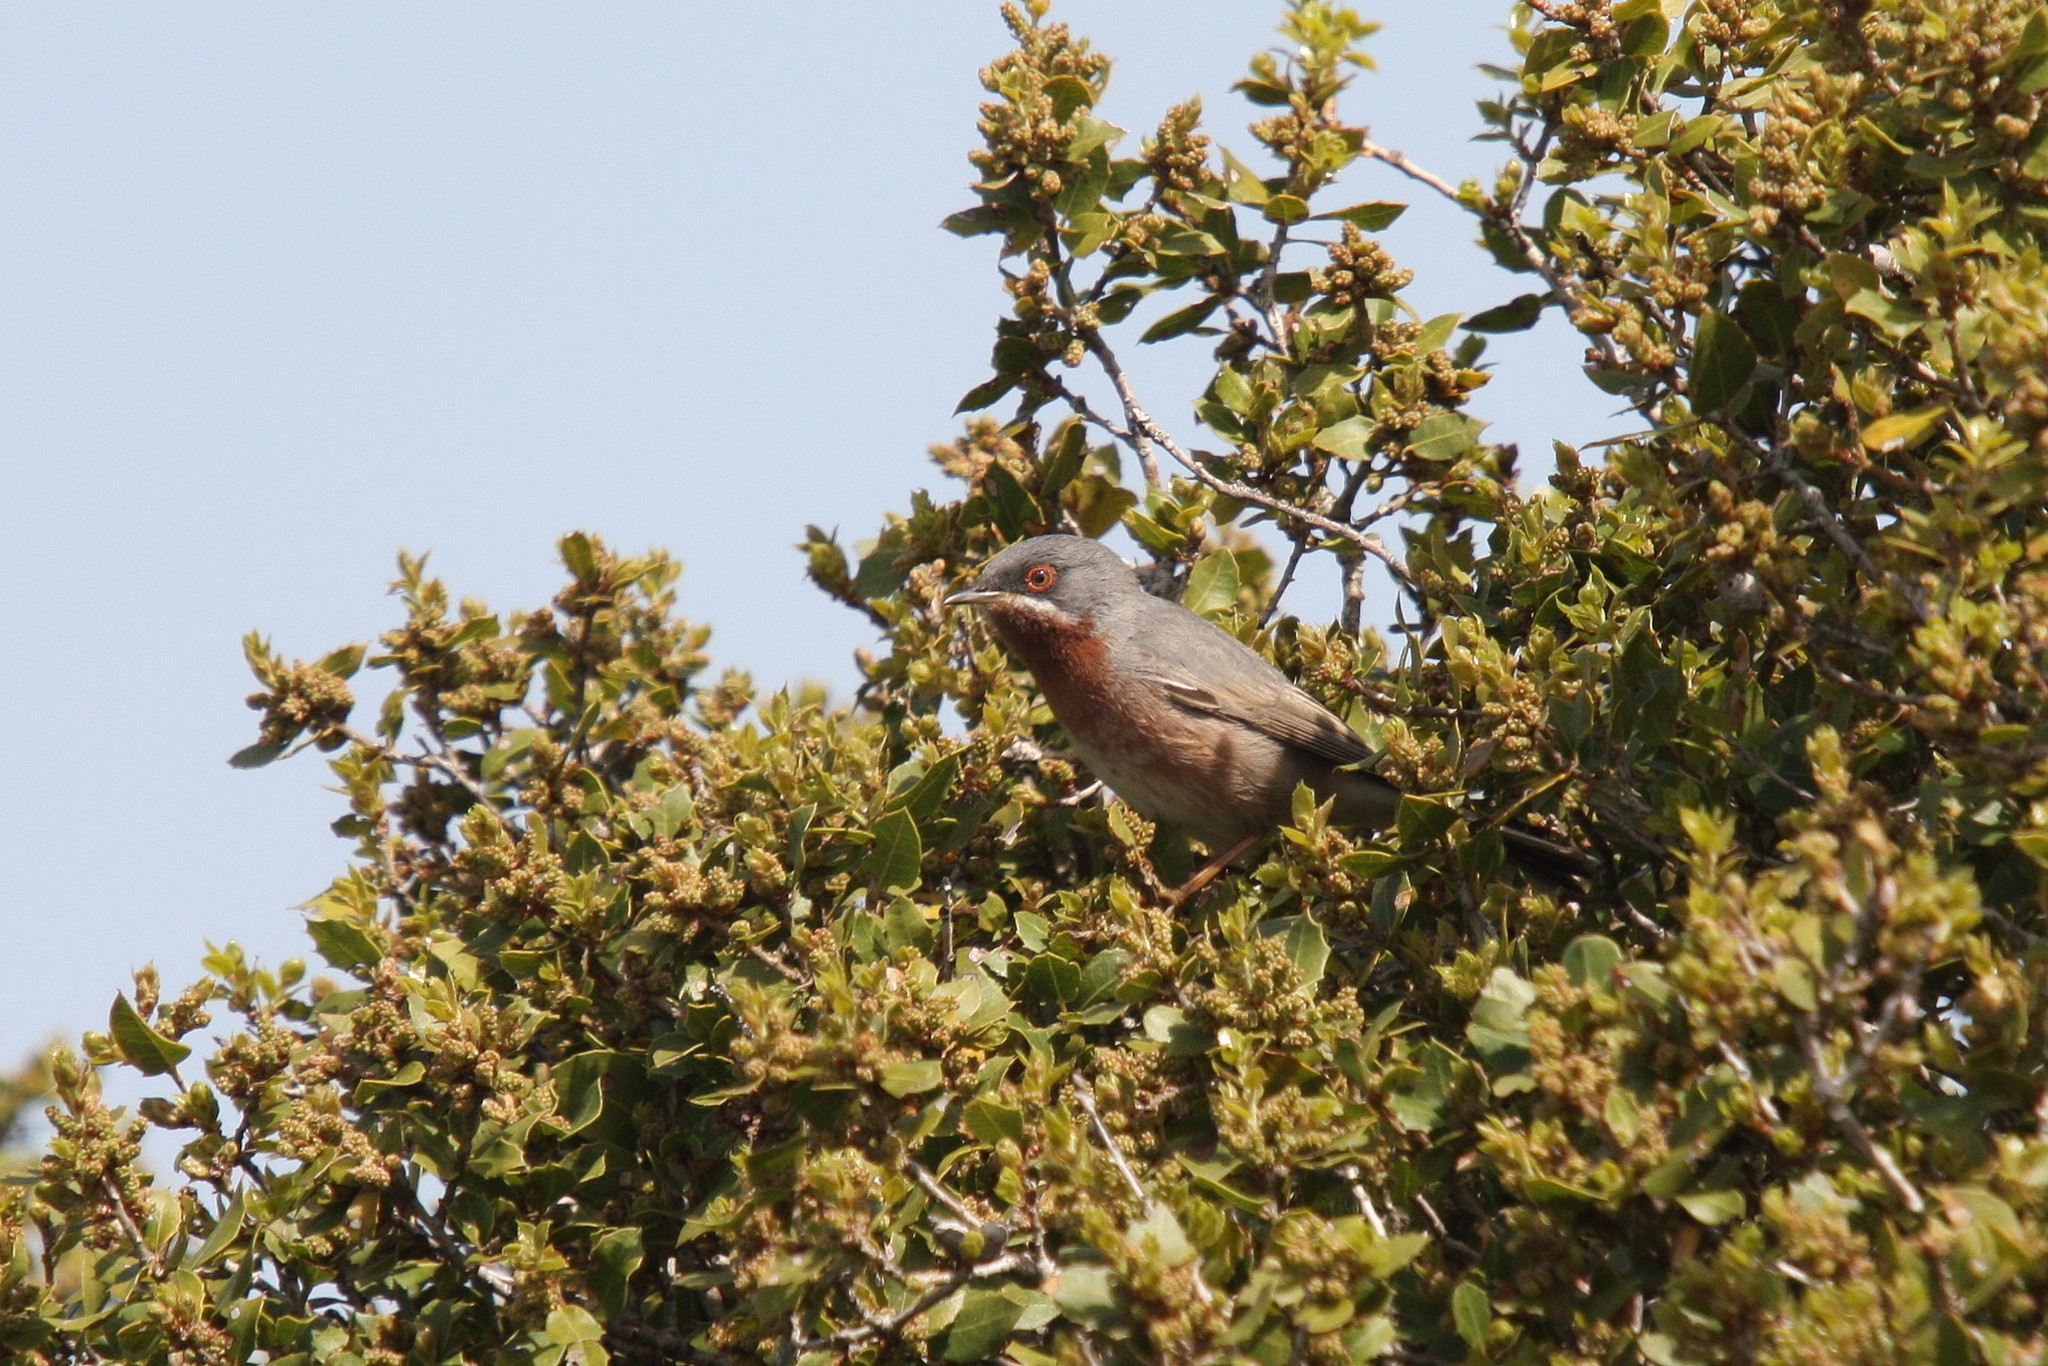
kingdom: Animalia
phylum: Chordata
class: Aves
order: Passeriformes
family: Sylviidae
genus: Curruca
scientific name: Curruca cantillans
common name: Subalpine warbler
